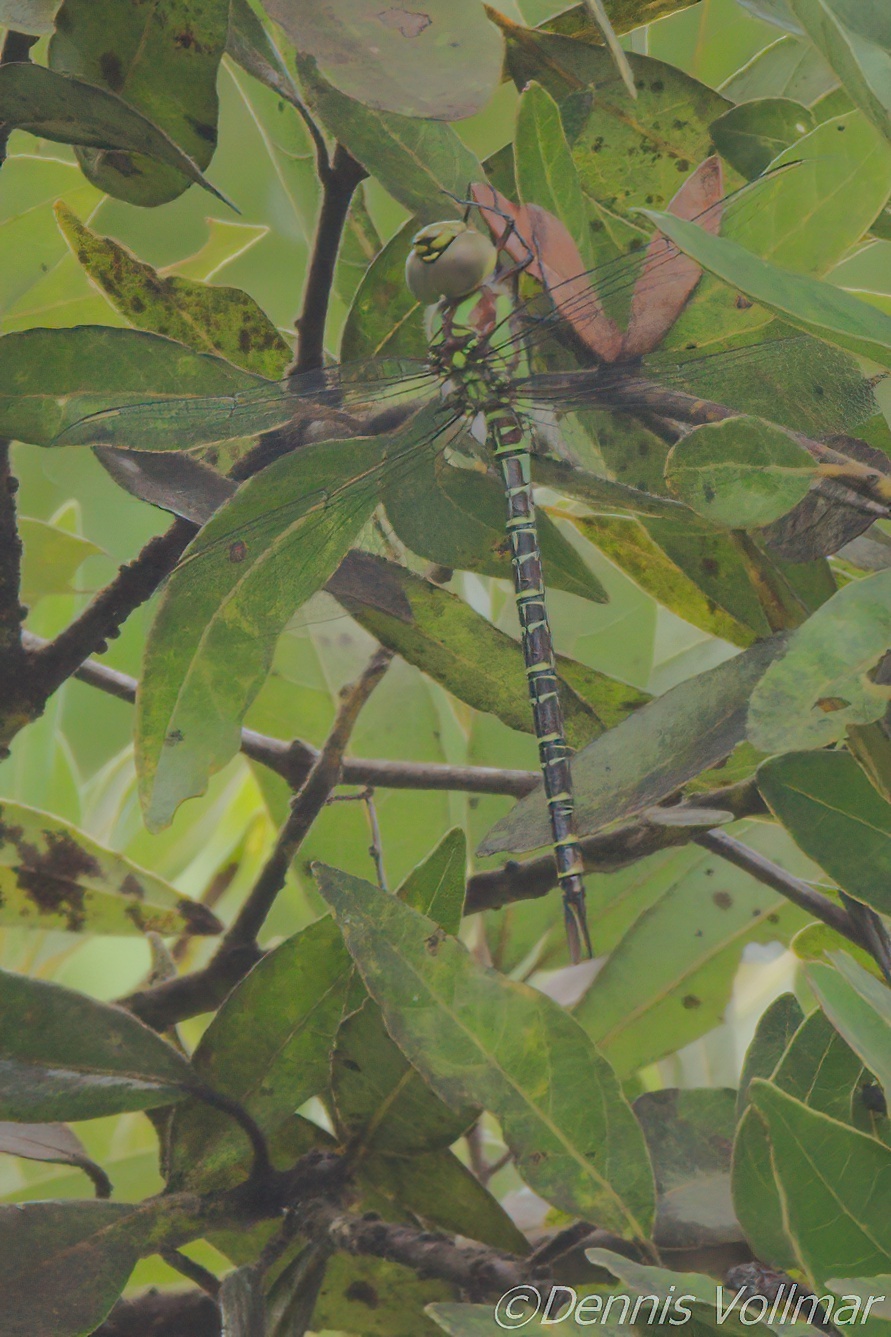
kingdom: Animalia
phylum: Arthropoda
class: Insecta
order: Odonata
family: Aeshnidae
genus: Coryphaeschna
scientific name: Coryphaeschna ingens
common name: Regal darner
